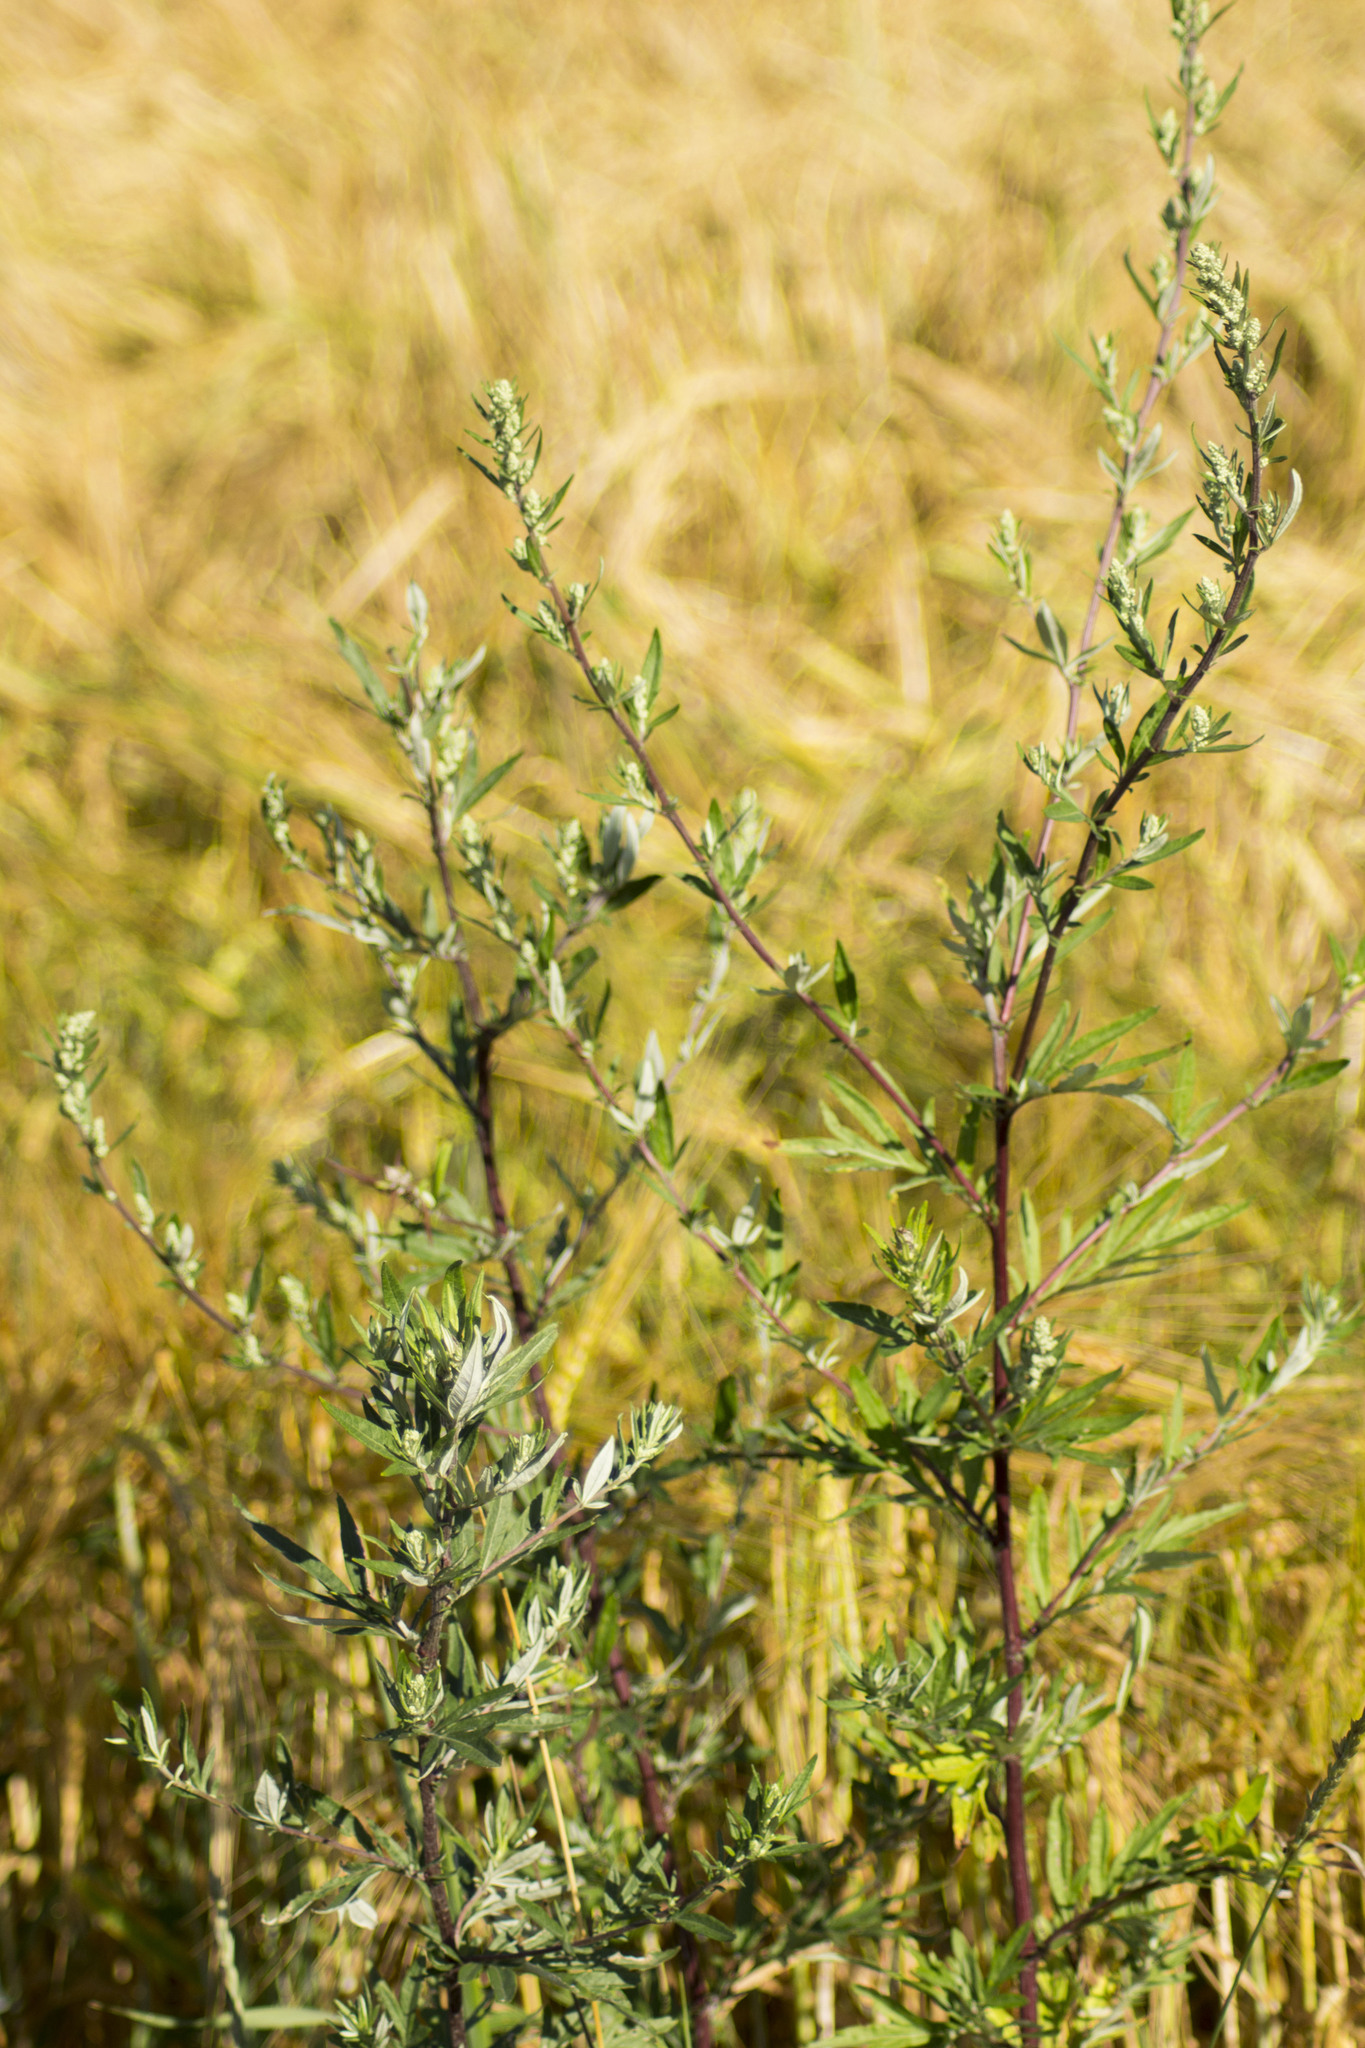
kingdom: Plantae
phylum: Tracheophyta
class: Magnoliopsida
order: Asterales
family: Asteraceae
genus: Artemisia
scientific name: Artemisia vulgaris
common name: Mugwort
